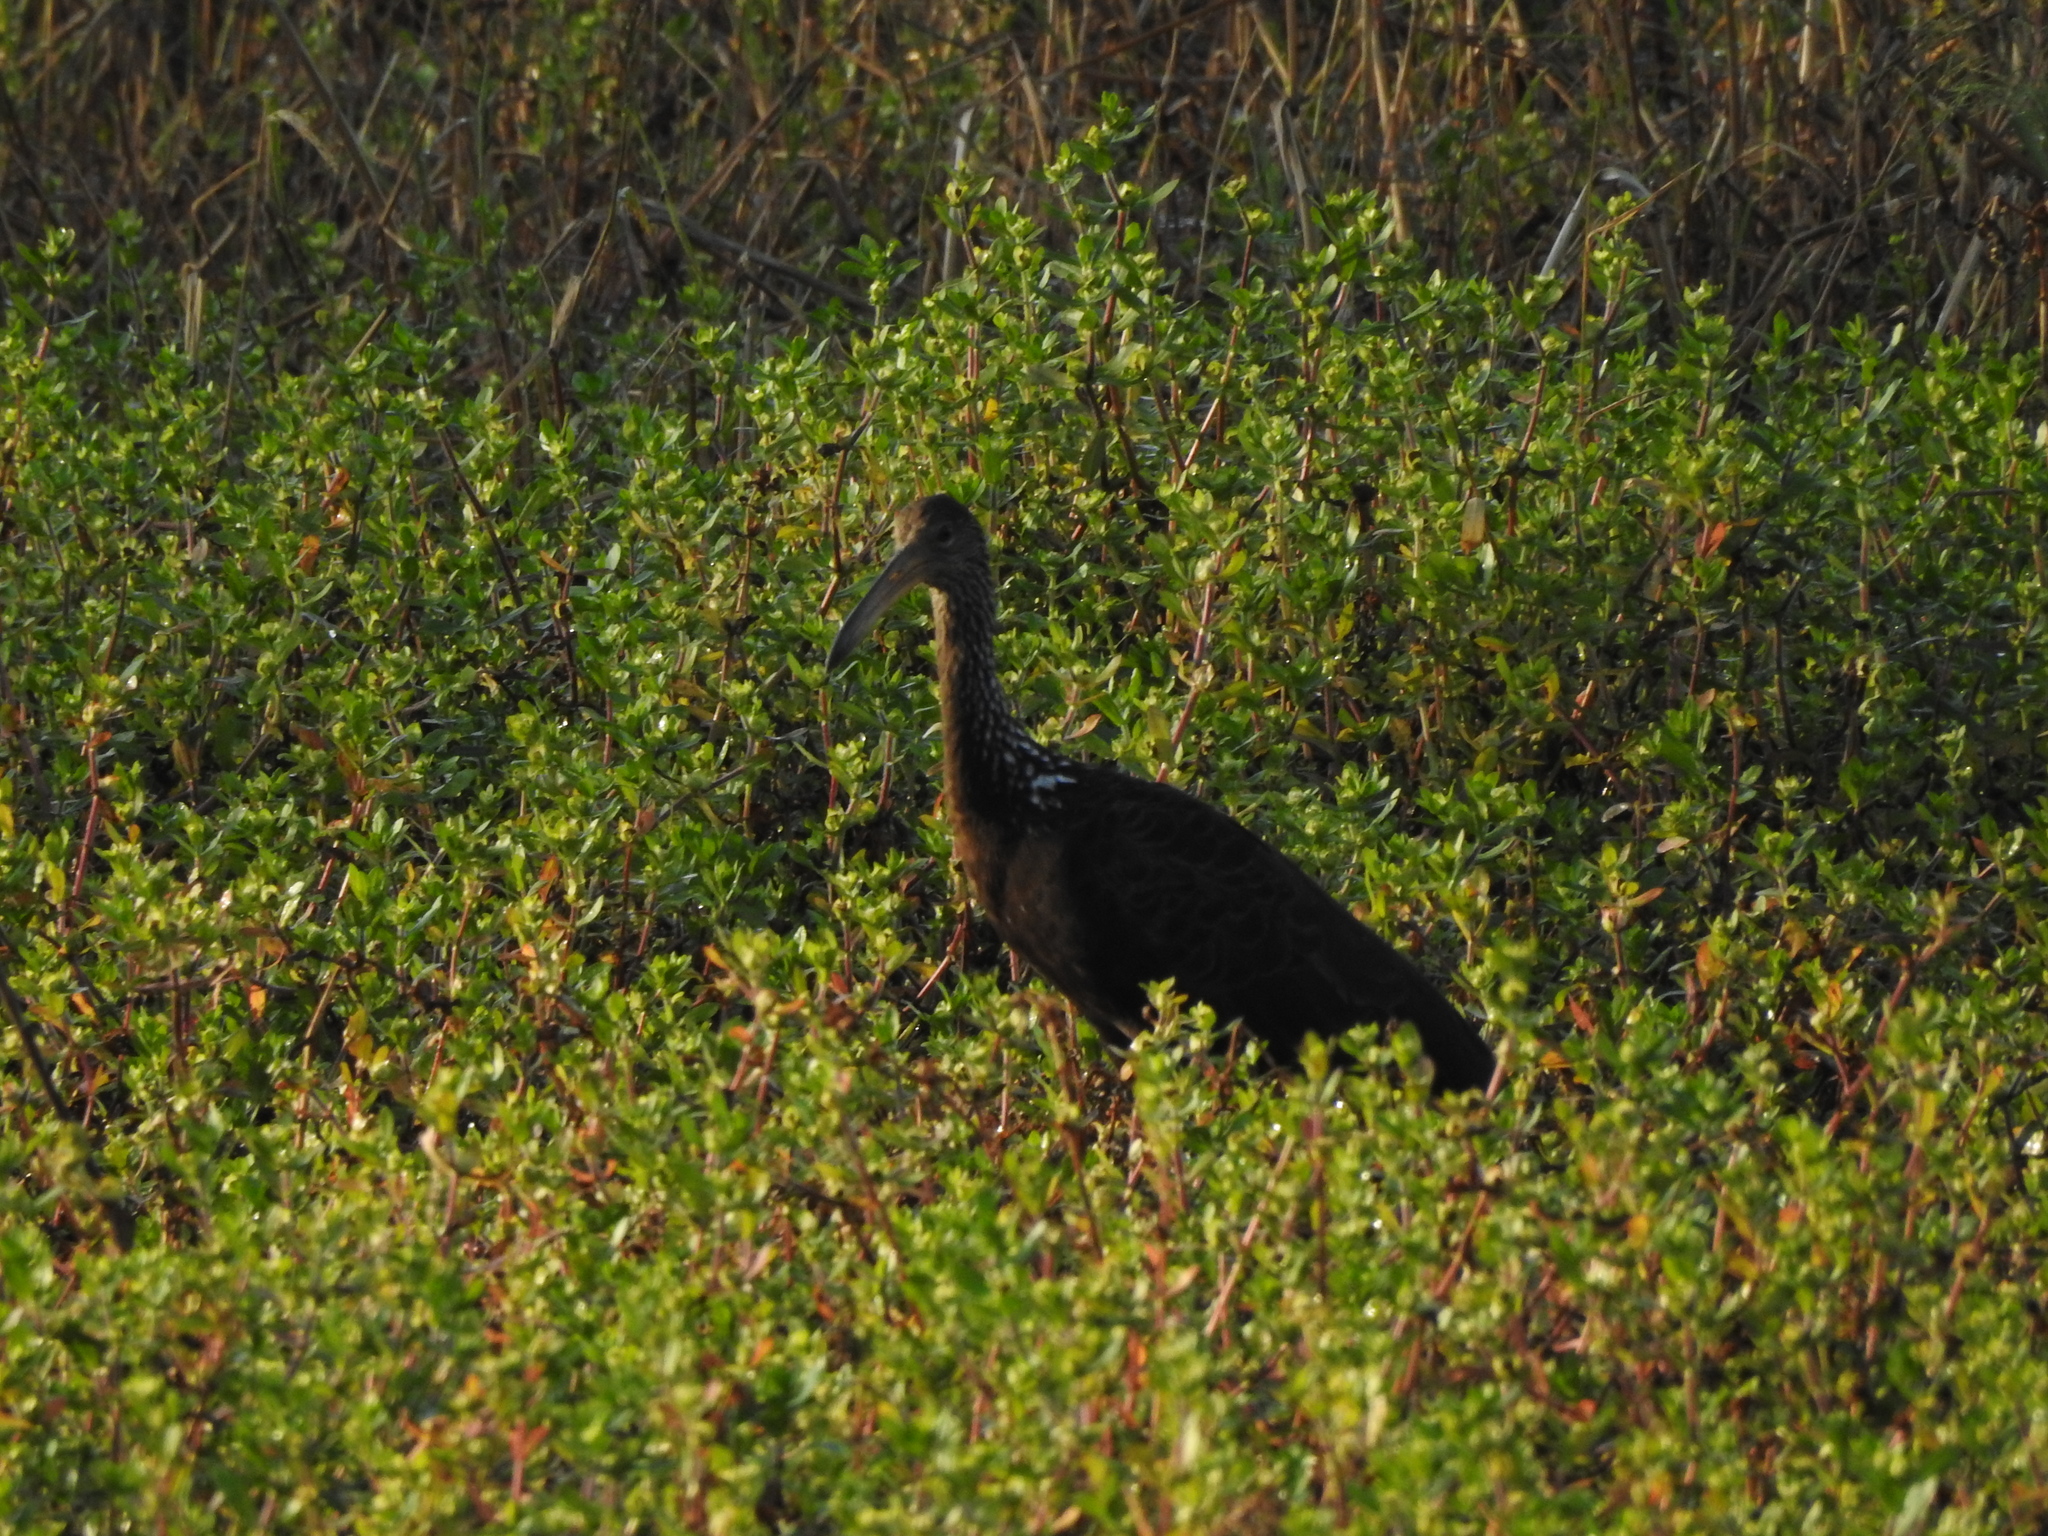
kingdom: Animalia
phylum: Chordata
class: Aves
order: Gruiformes
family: Aramidae
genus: Aramus
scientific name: Aramus guarauna
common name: Limpkin
